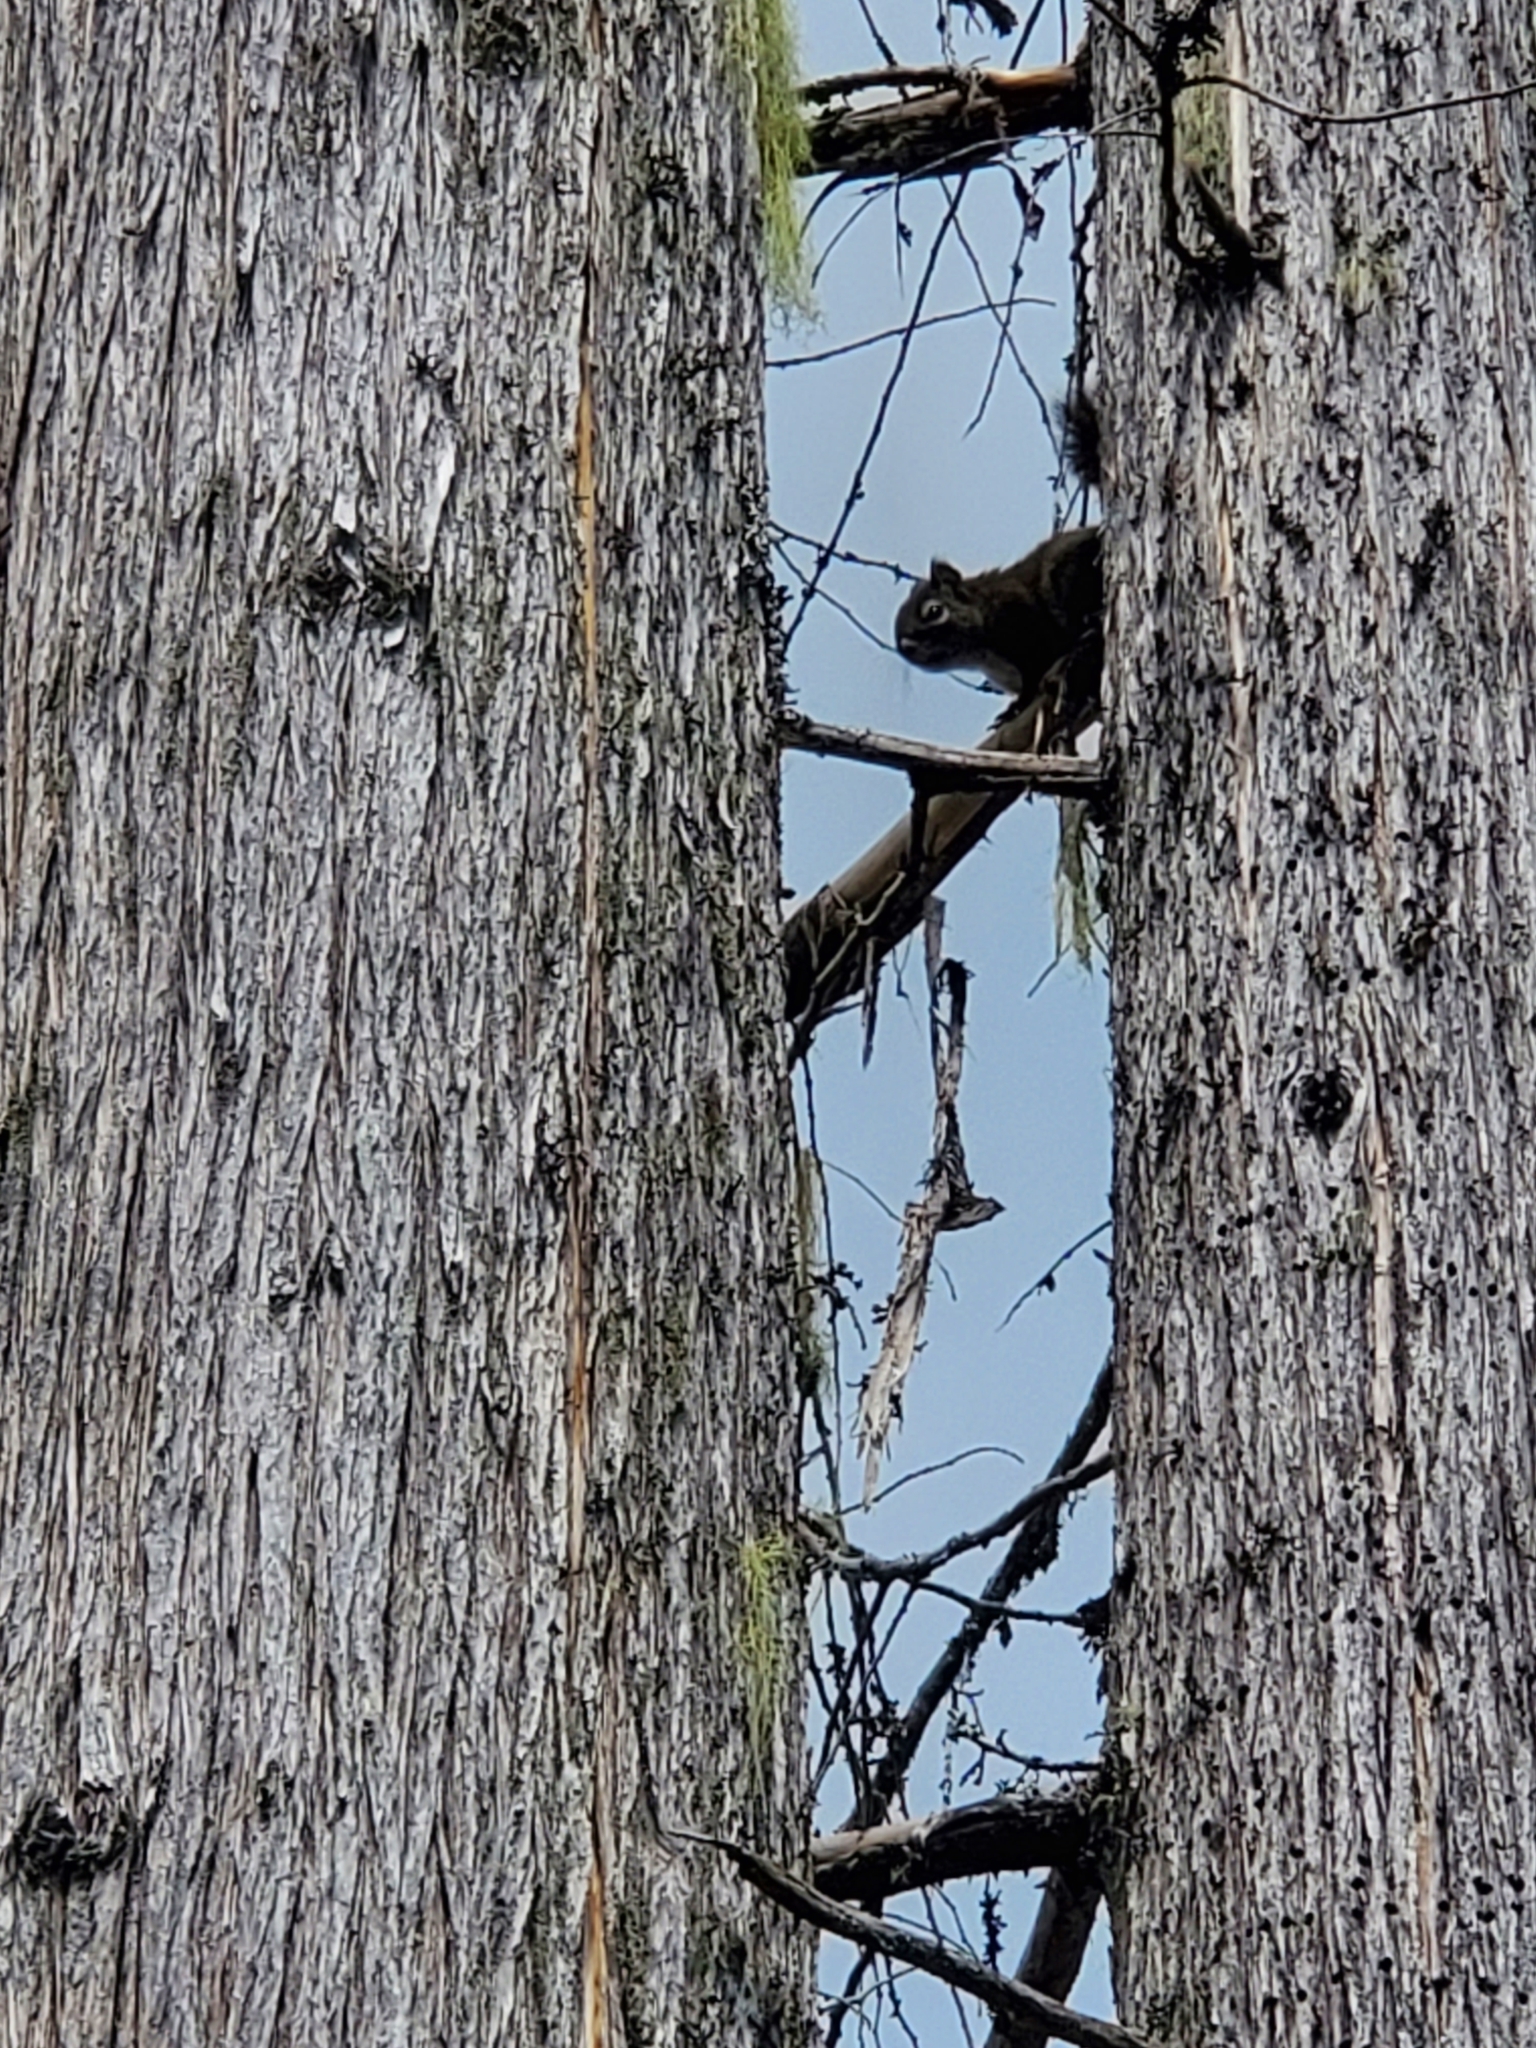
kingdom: Animalia
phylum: Chordata
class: Mammalia
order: Rodentia
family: Sciuridae
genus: Tamiasciurus
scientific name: Tamiasciurus hudsonicus
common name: Red squirrel
